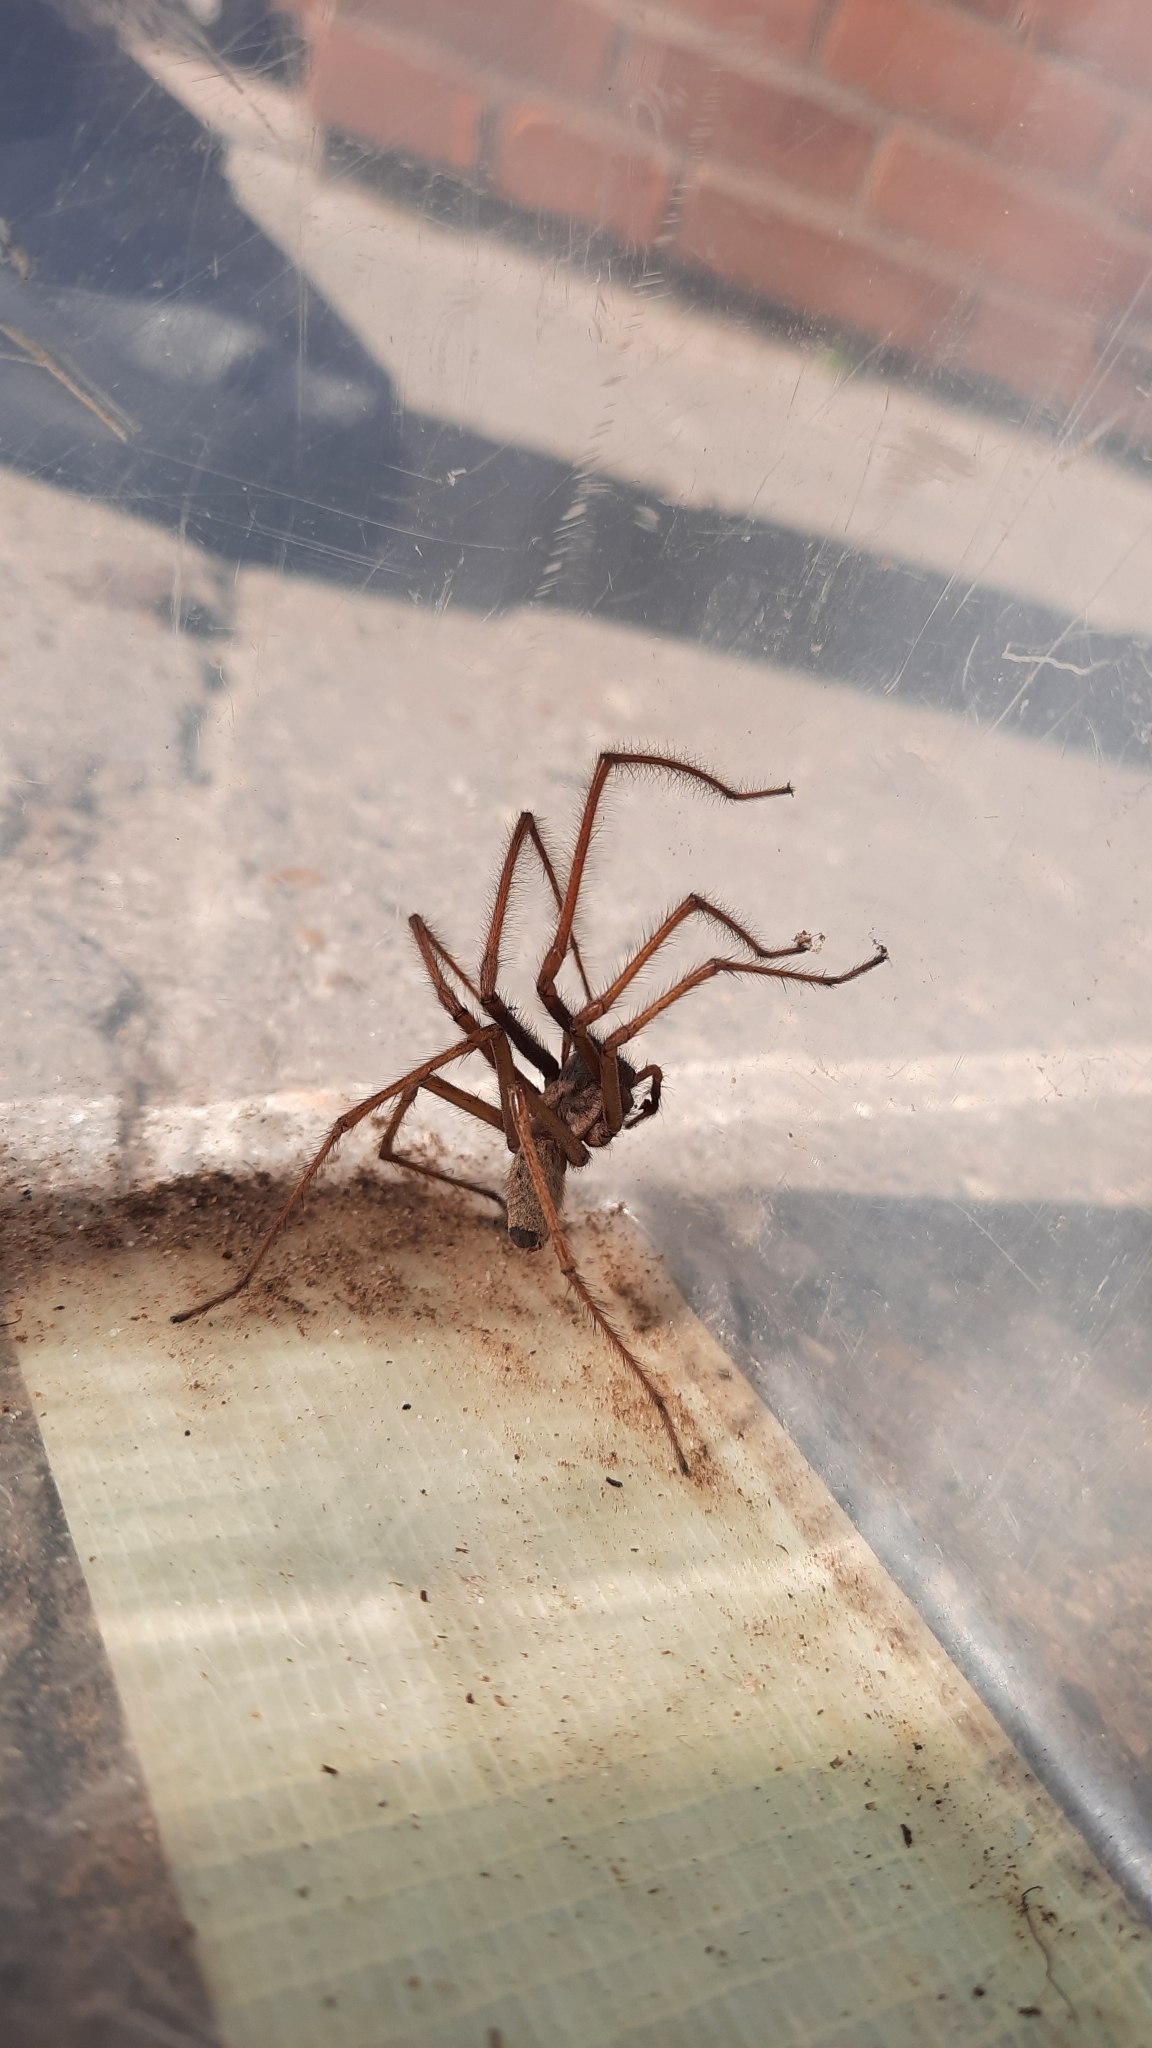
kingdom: Animalia
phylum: Arthropoda
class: Arachnida
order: Araneae
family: Agelenidae
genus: Eratigena
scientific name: Eratigena atrica
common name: Giant house spider
